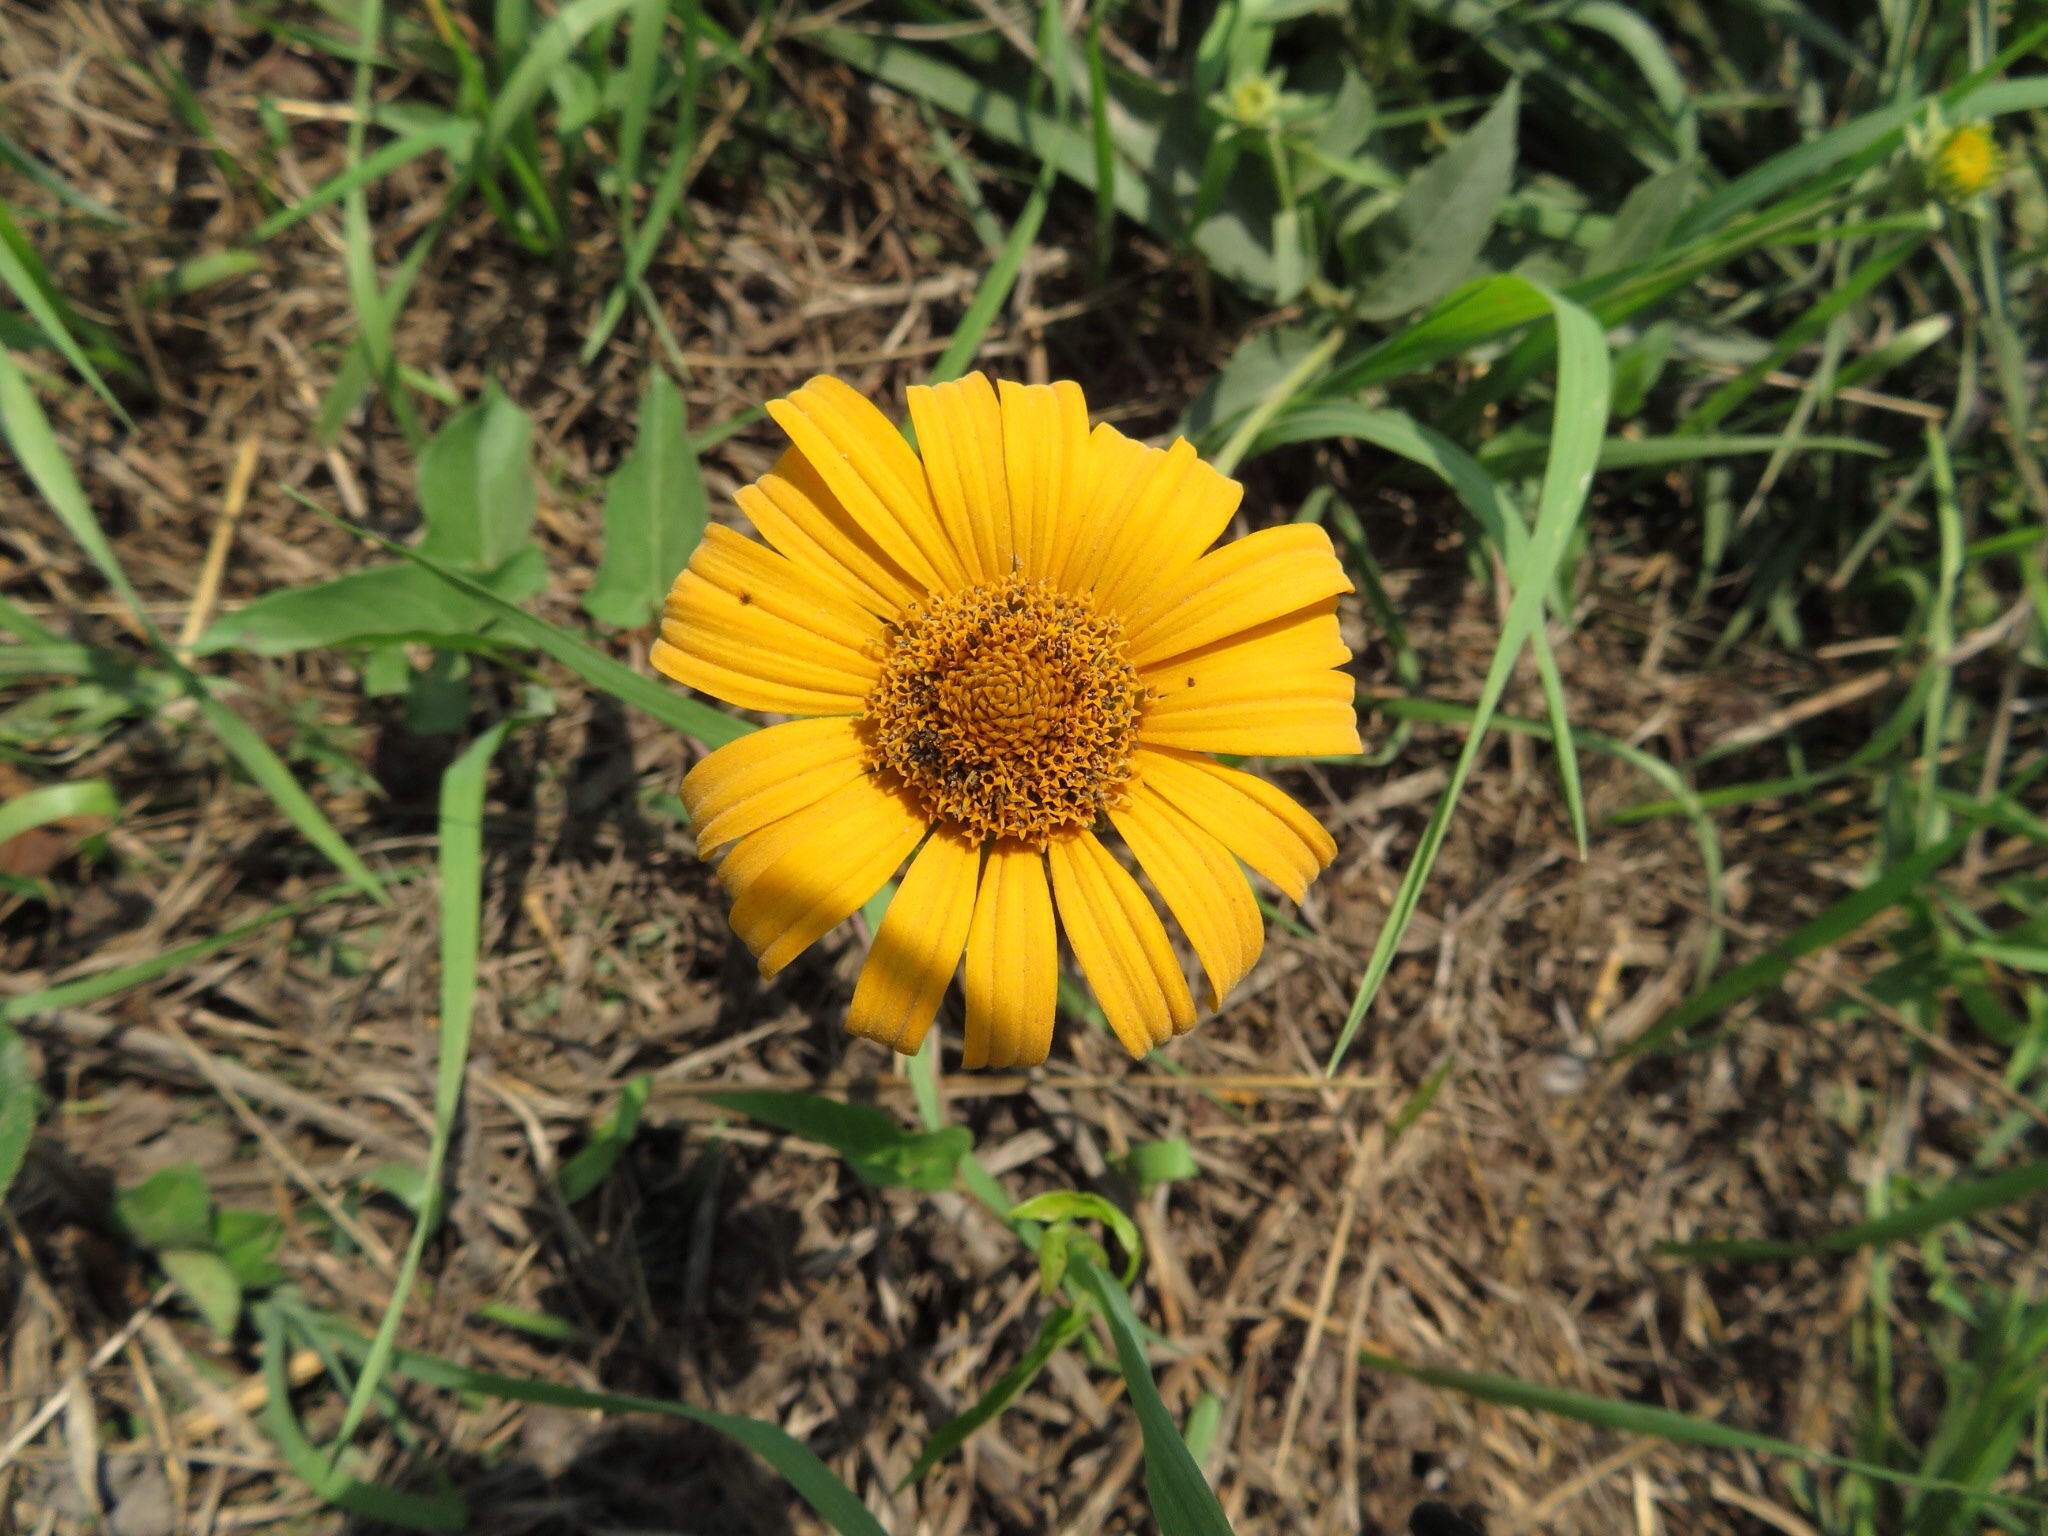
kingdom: Plantae
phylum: Tracheophyta
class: Magnoliopsida
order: Asterales
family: Asteraceae
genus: Heliopsis
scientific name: Heliopsis helianthoides
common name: False sunflower
